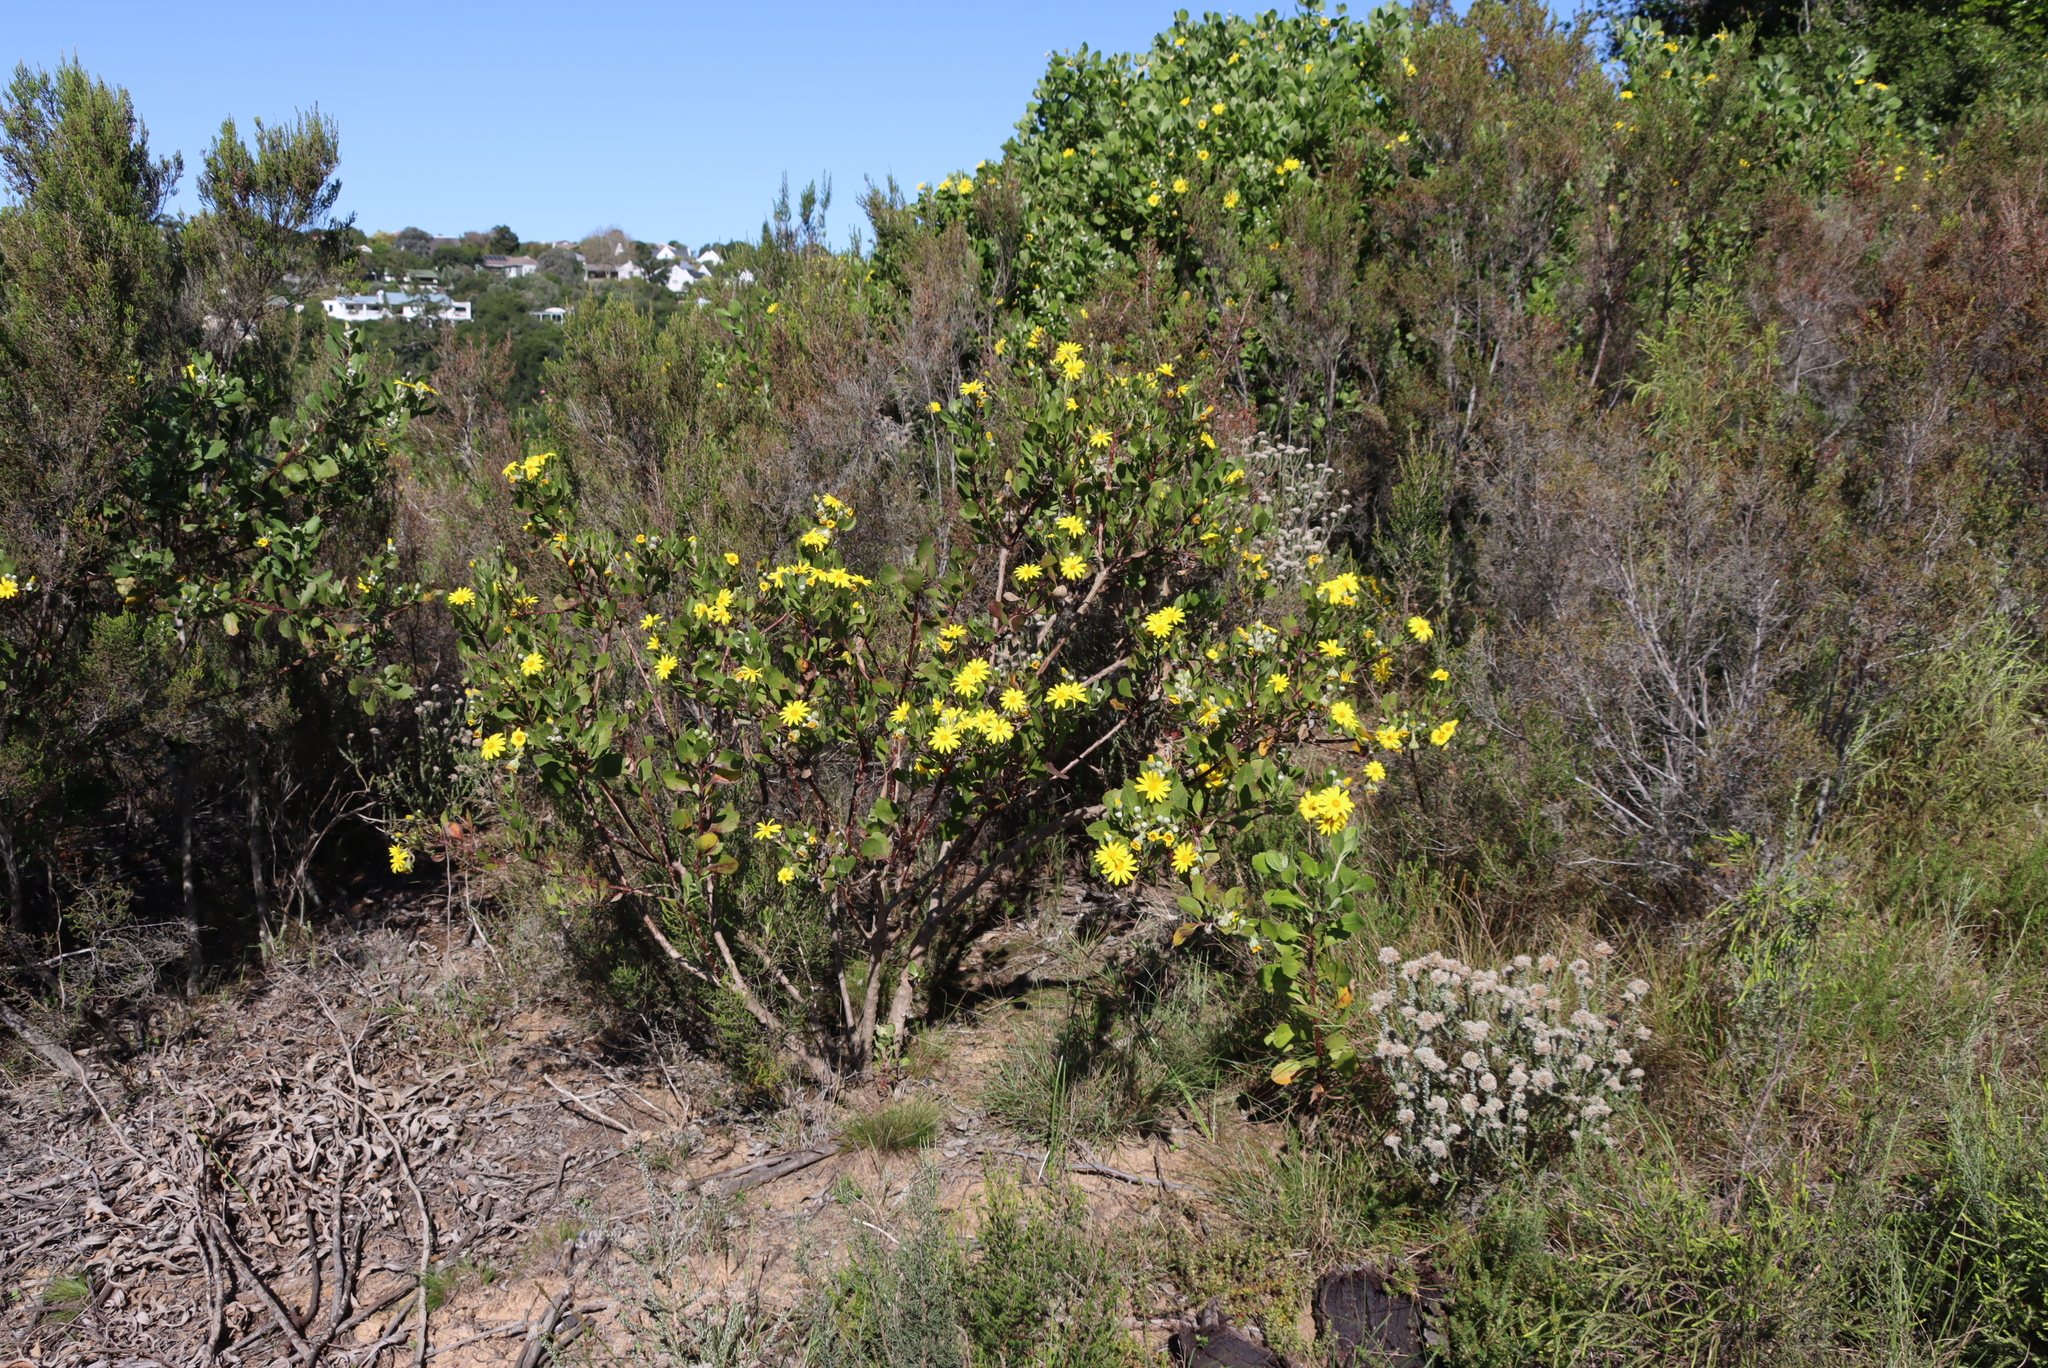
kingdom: Plantae
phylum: Tracheophyta
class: Magnoliopsida
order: Asterales
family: Asteraceae
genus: Osteospermum
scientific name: Osteospermum moniliferum
